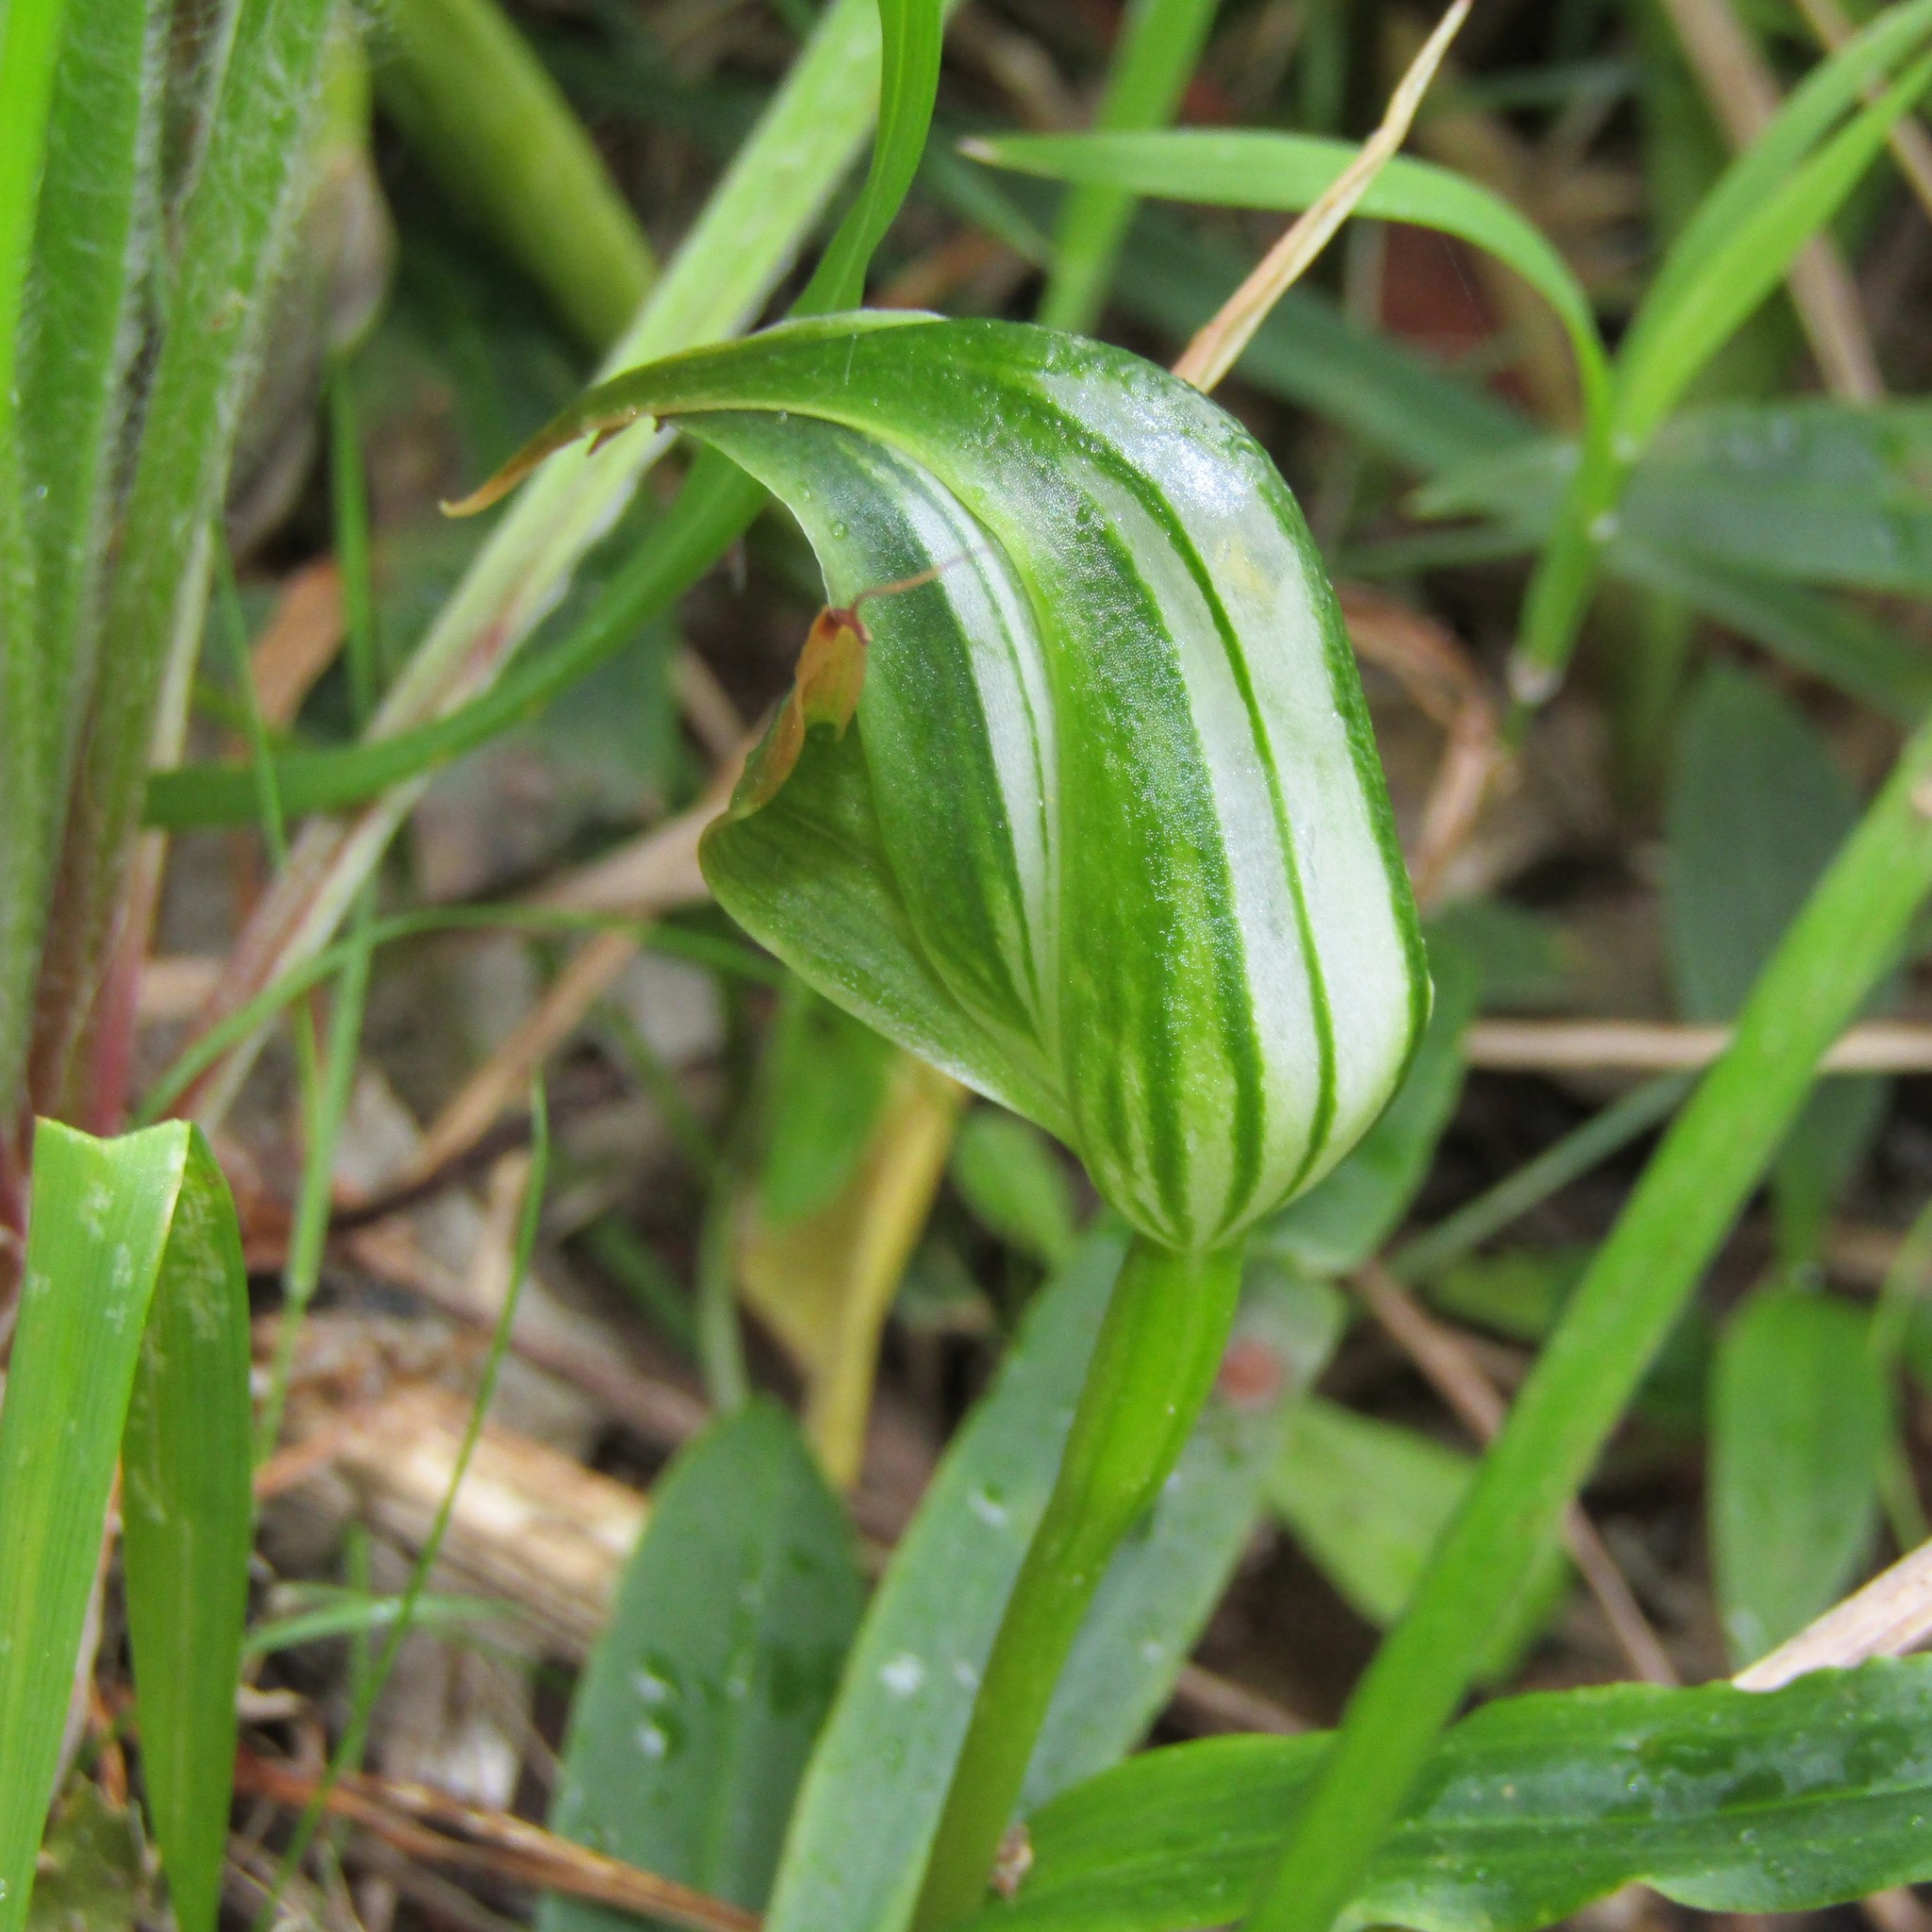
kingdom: Plantae
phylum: Tracheophyta
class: Liliopsida
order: Asparagales
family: Orchidaceae
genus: Pterostylis
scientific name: Pterostylis banksii
